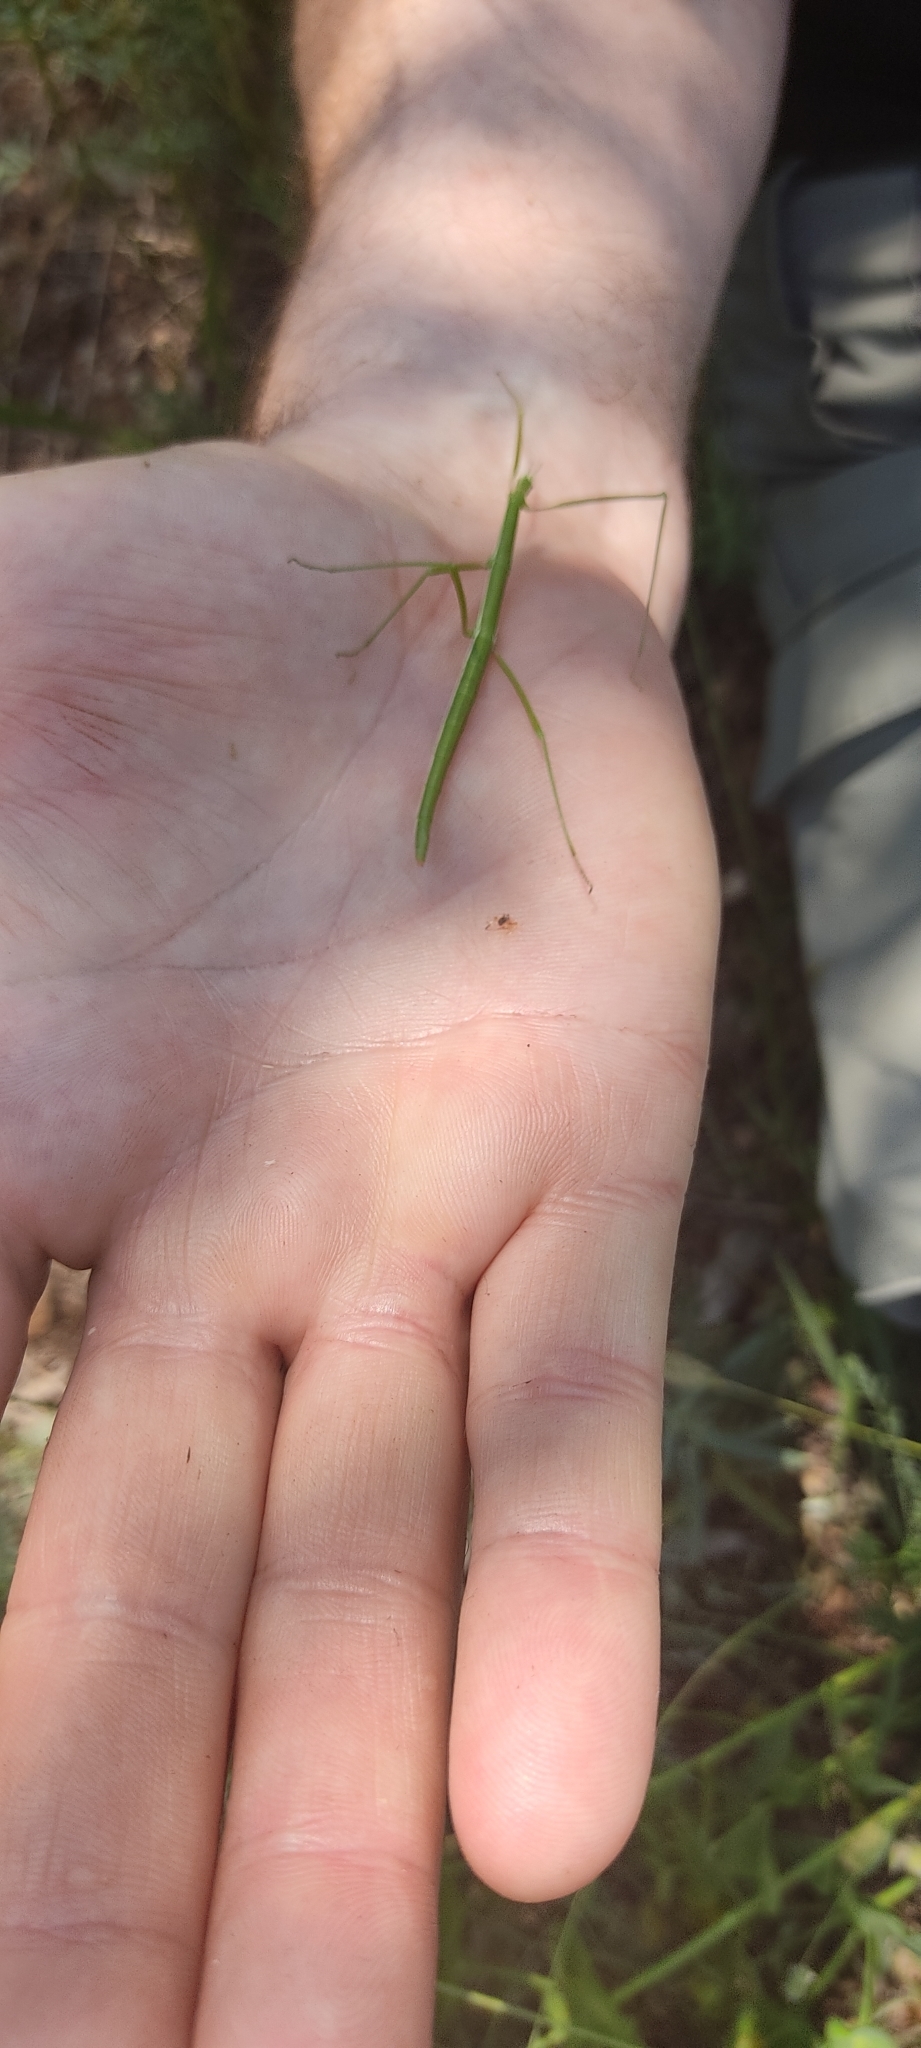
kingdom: Animalia
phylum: Arthropoda
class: Insecta
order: Phasmida
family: Bacillidae
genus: Pijnackeria
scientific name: Pijnackeria masettii
